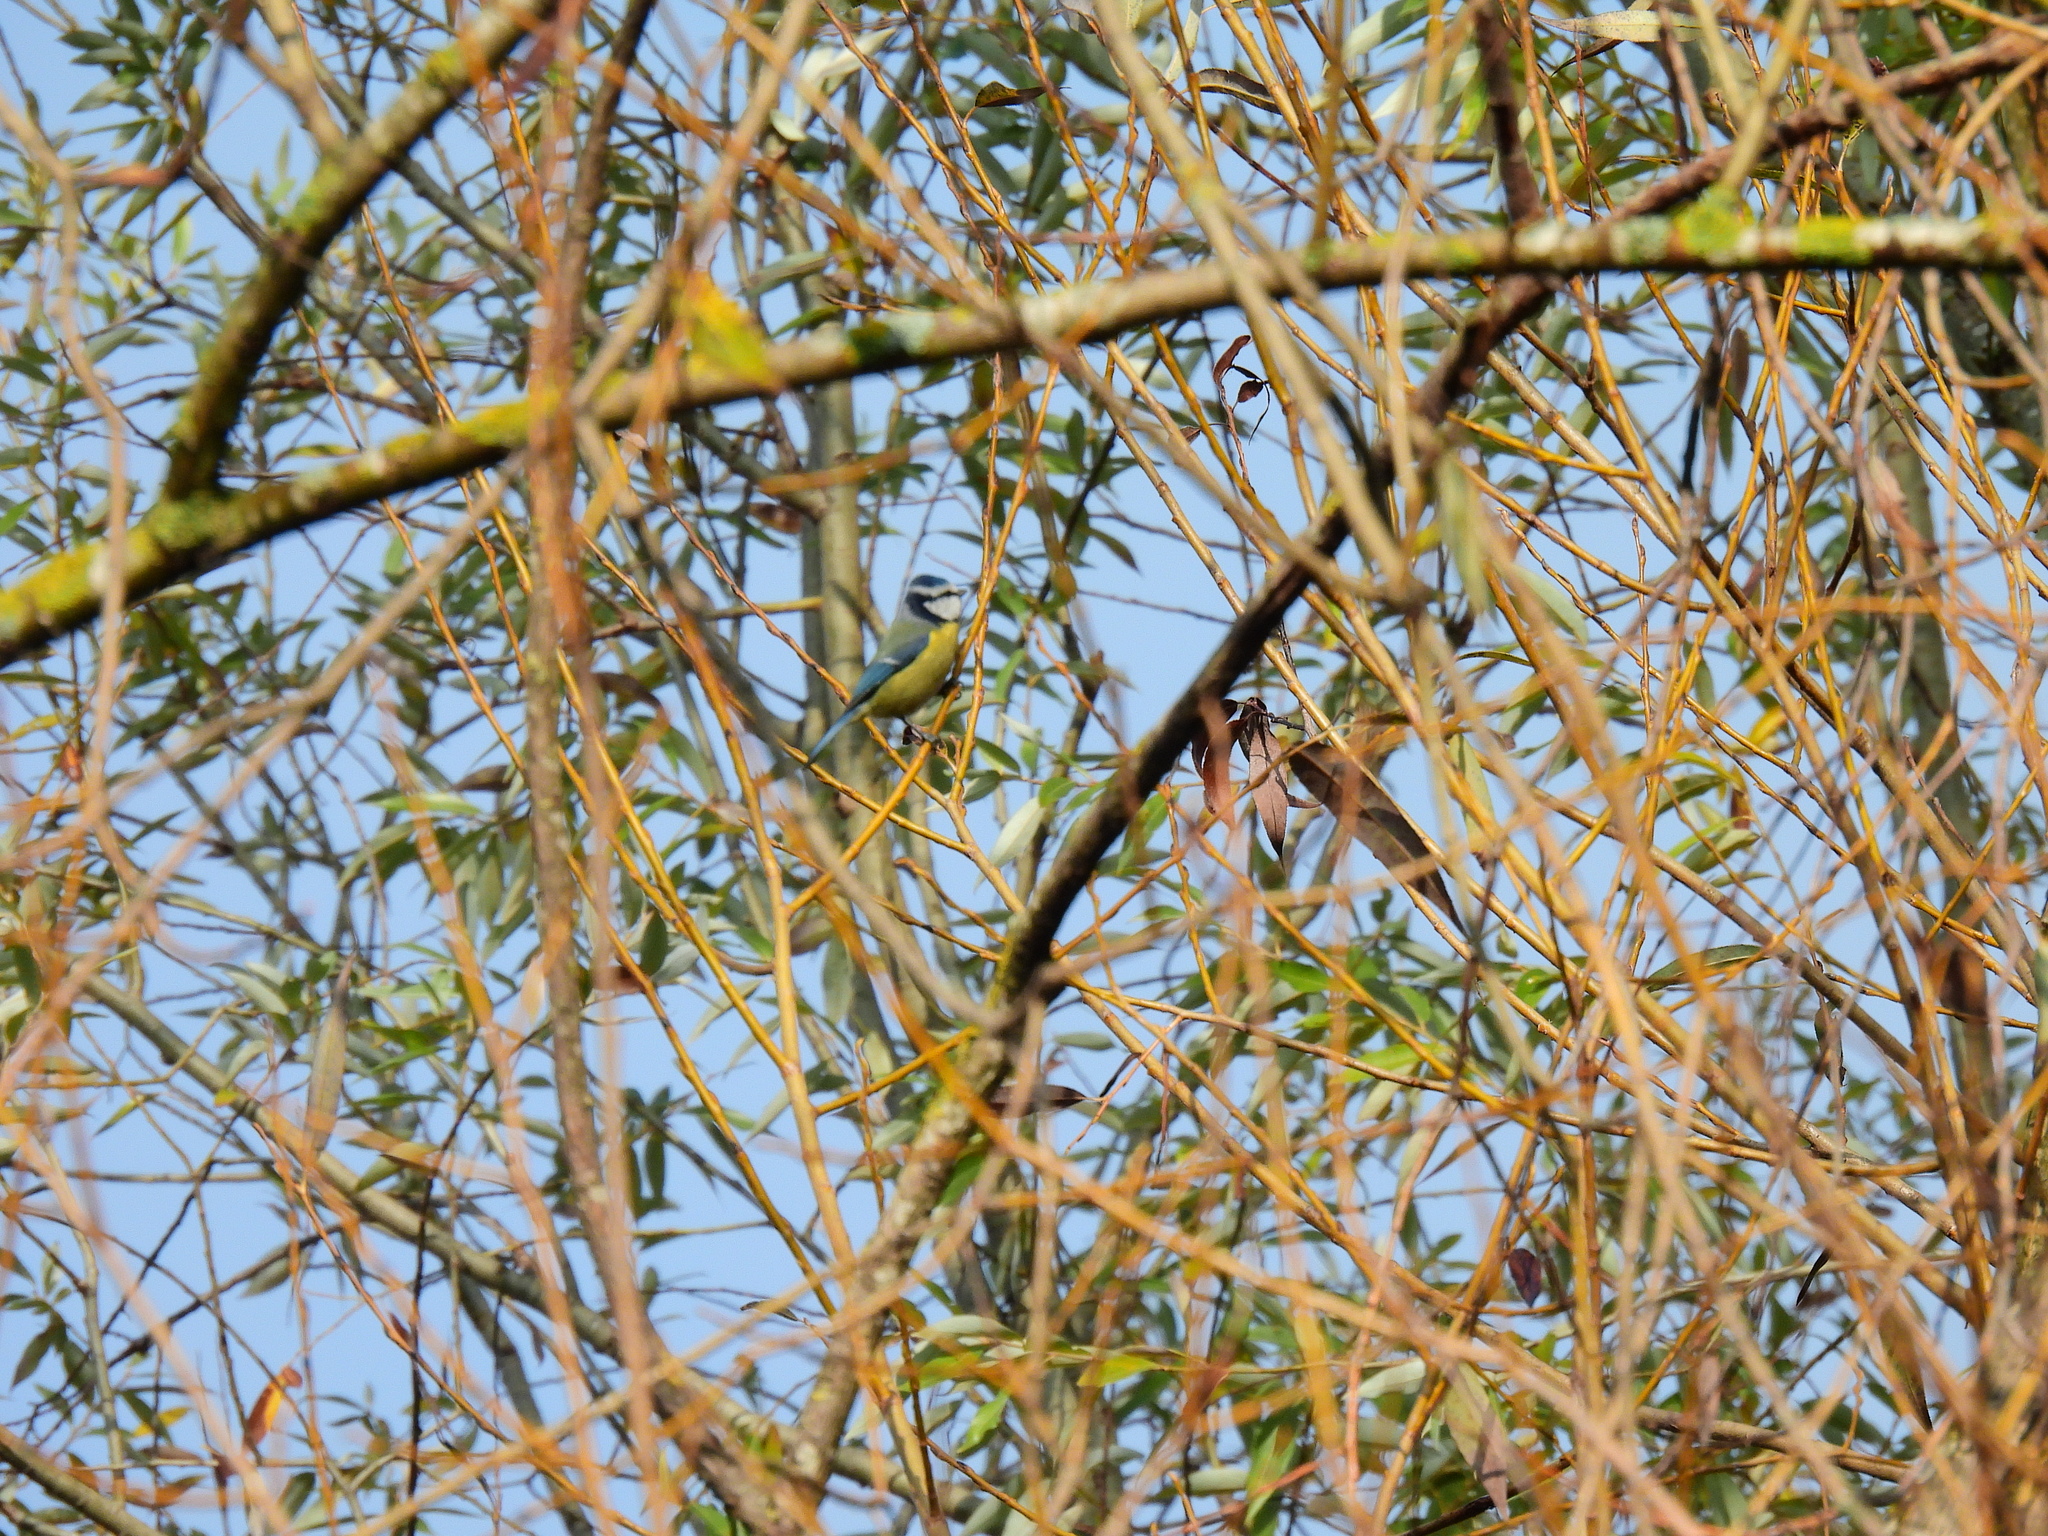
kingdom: Animalia
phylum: Chordata
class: Aves
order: Passeriformes
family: Paridae
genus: Cyanistes
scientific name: Cyanistes caeruleus
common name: Eurasian blue tit
